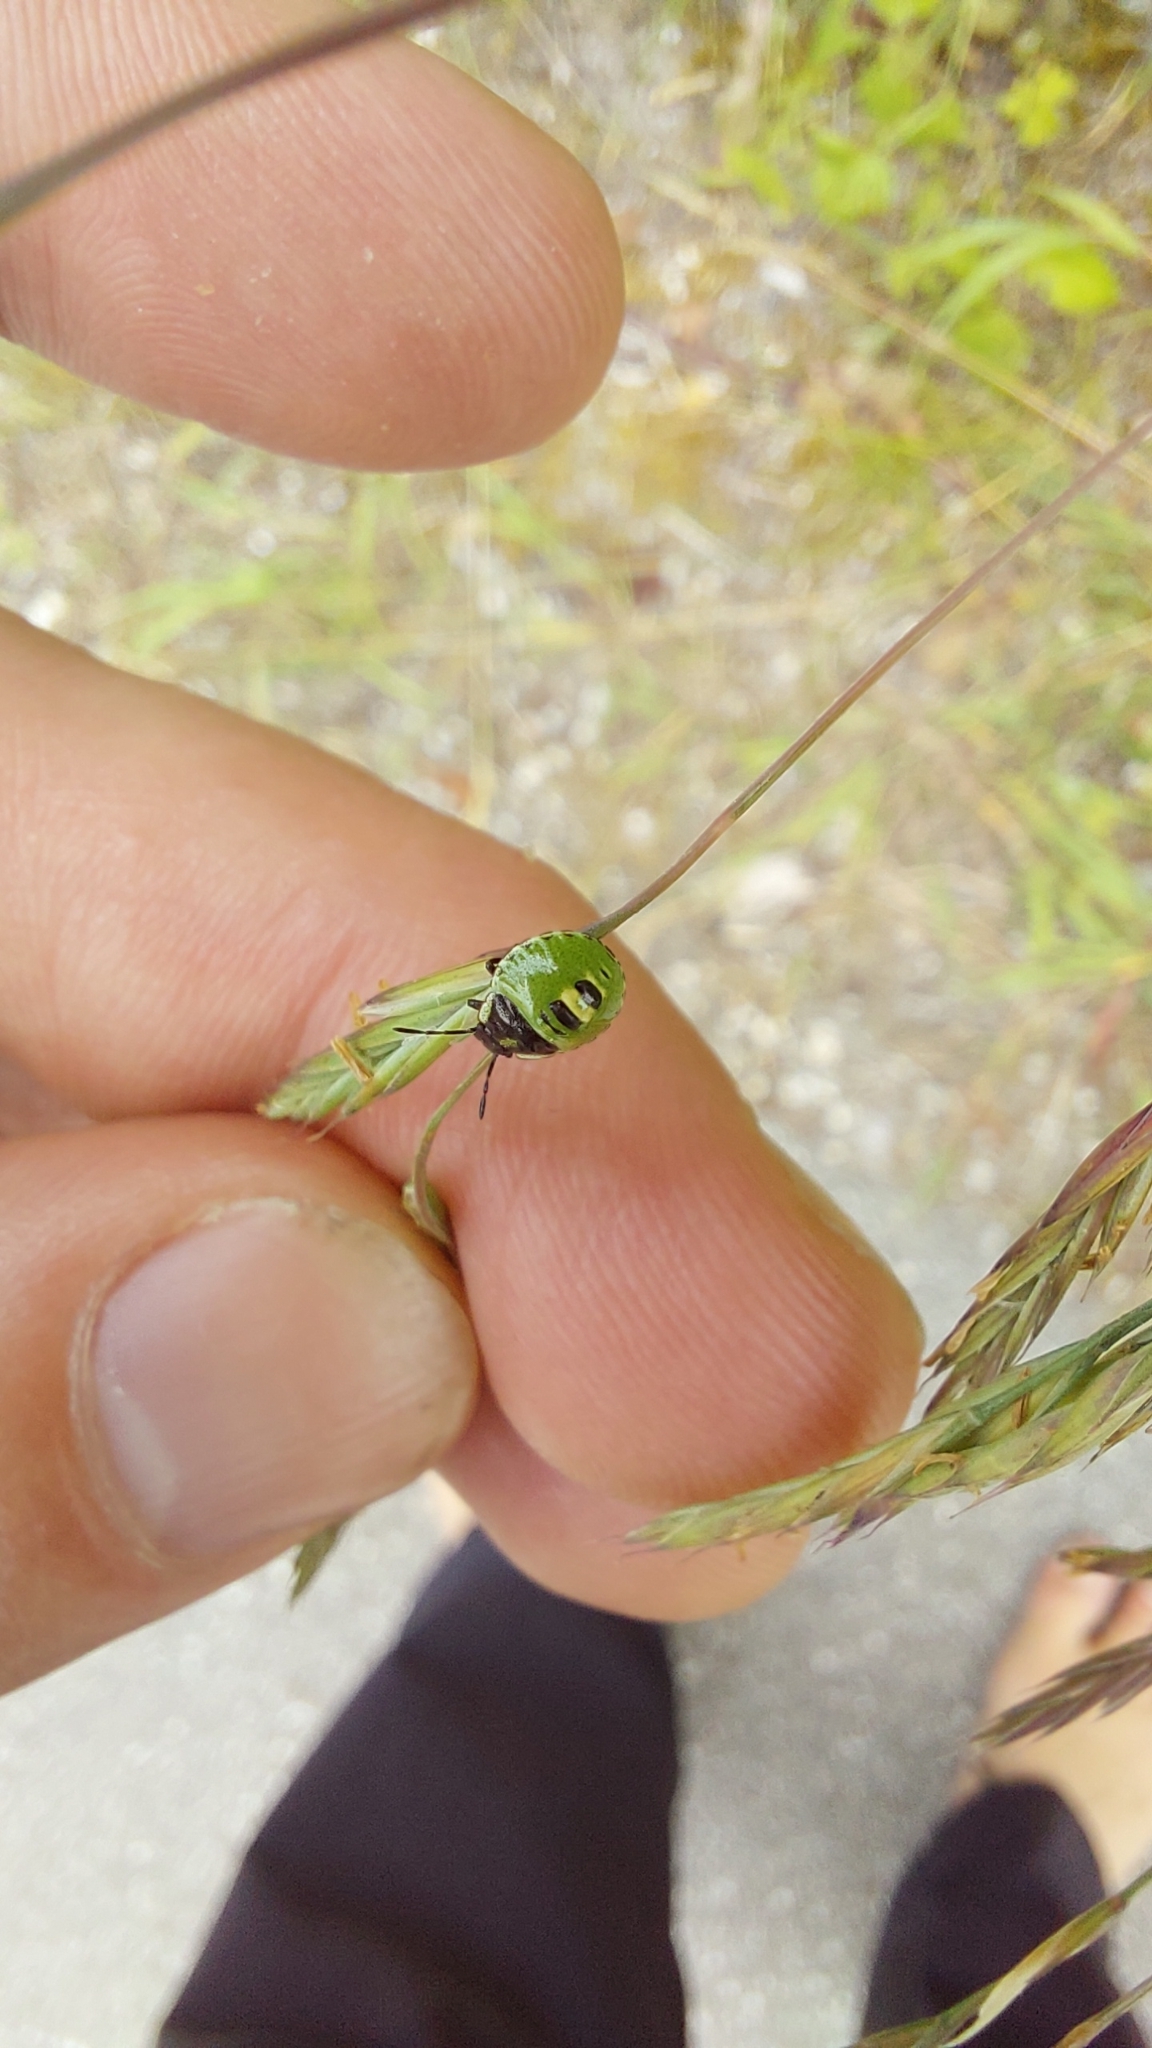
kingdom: Animalia
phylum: Arthropoda
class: Insecta
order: Hemiptera
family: Pentatomidae
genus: Palomena
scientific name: Palomena prasina
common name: Green shieldbug
